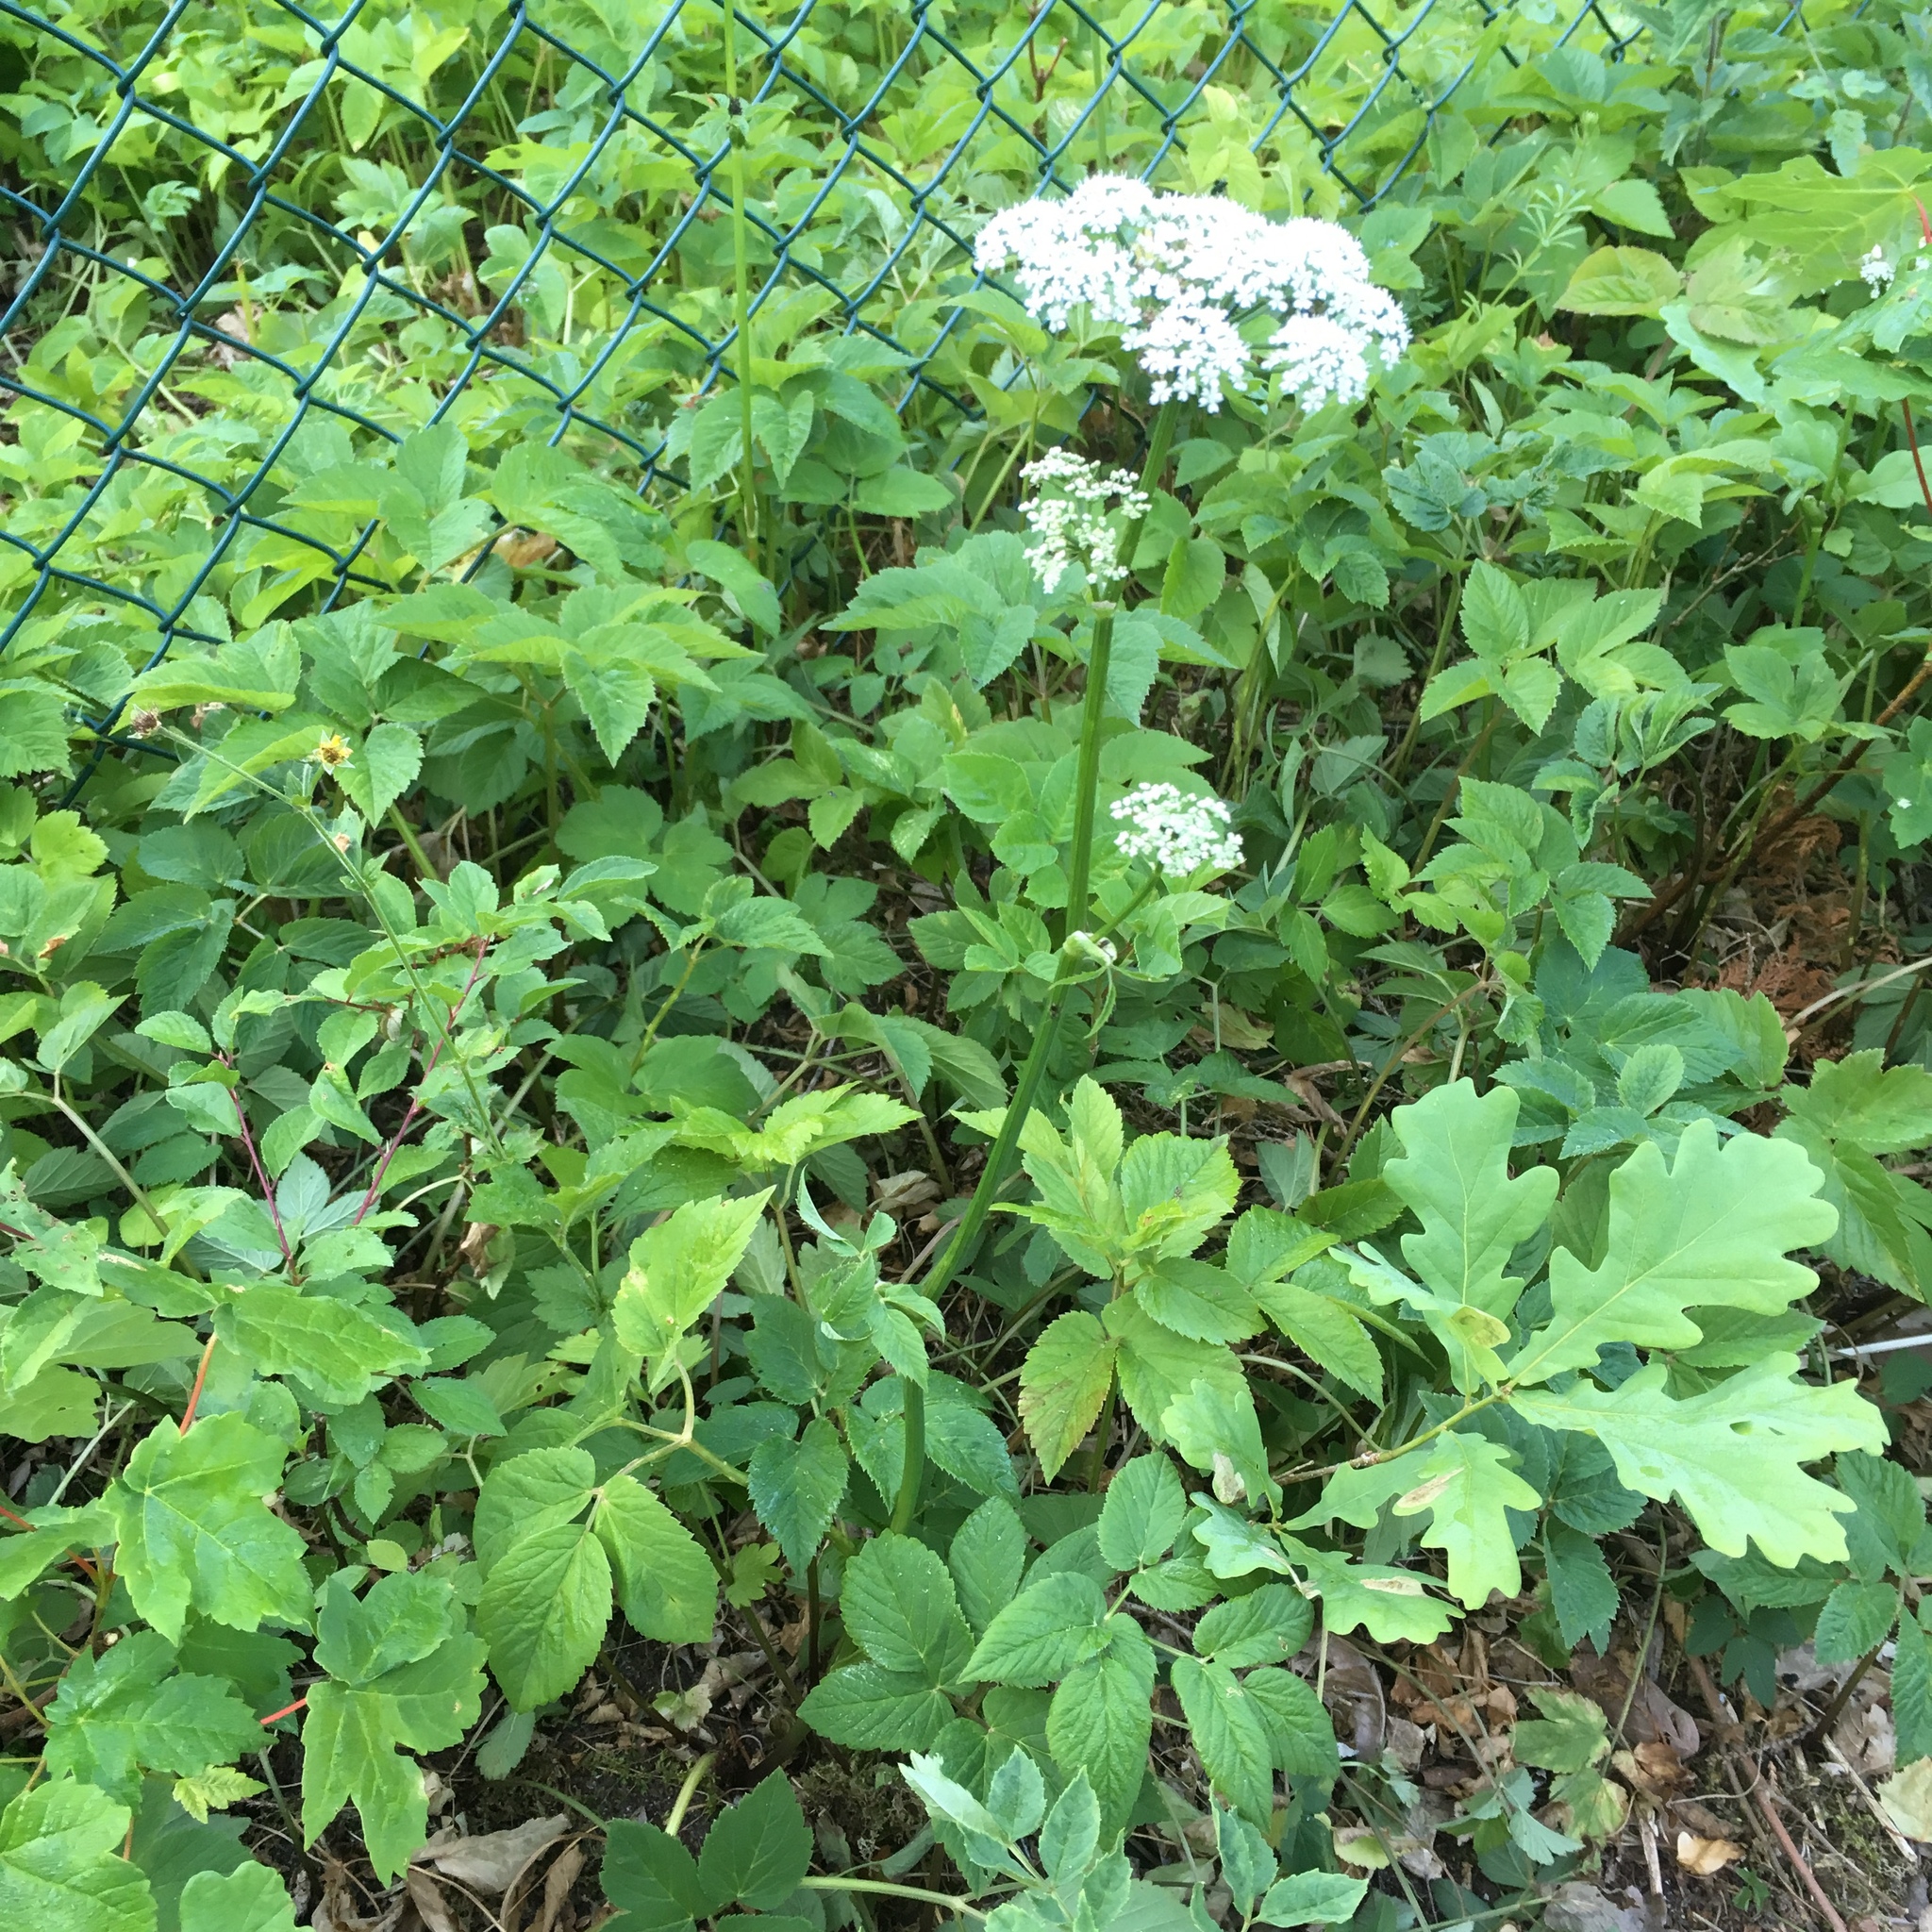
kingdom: Plantae
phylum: Tracheophyta
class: Magnoliopsida
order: Apiales
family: Apiaceae
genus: Aegopodium
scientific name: Aegopodium podagraria
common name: Ground-elder
